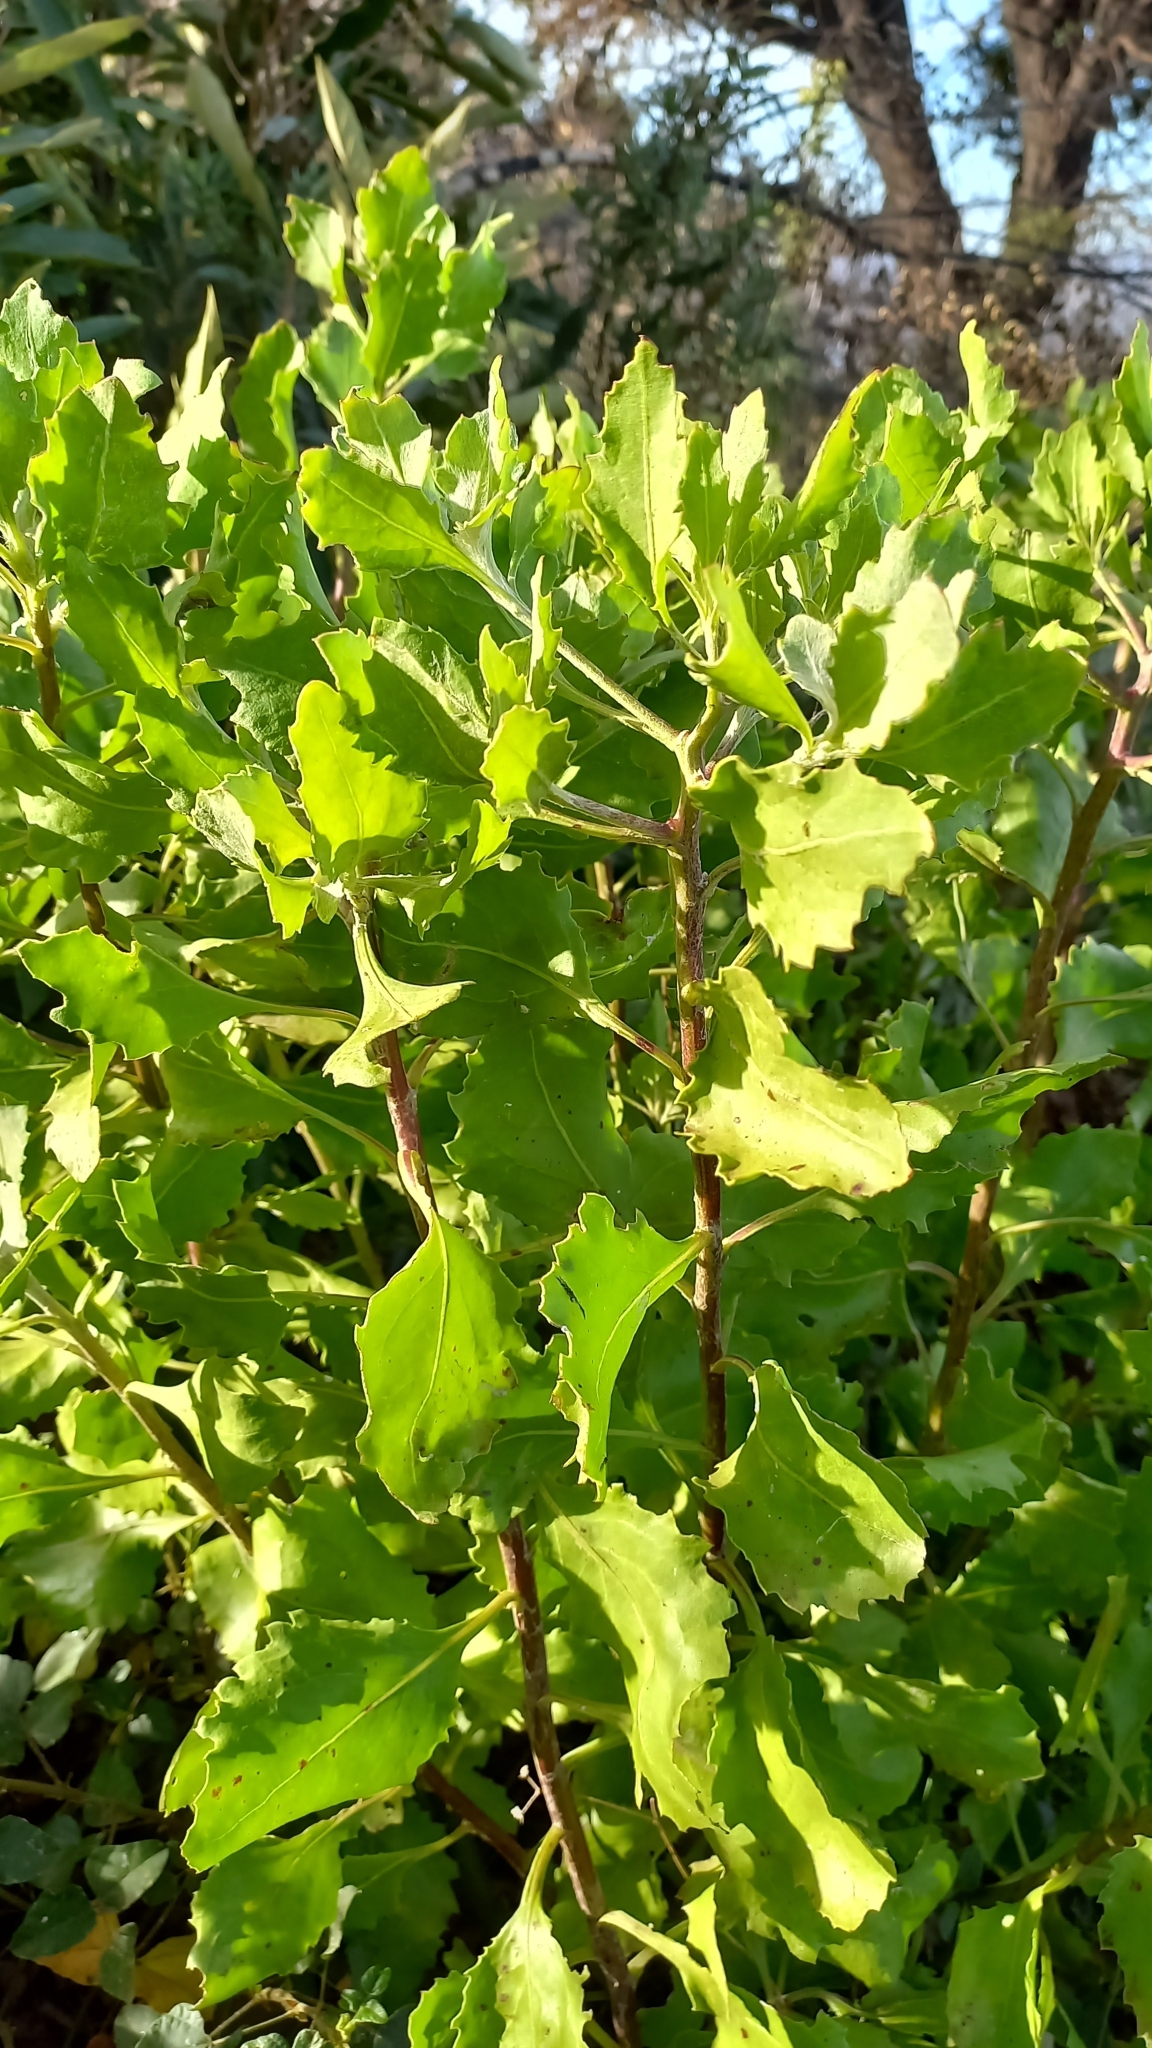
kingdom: Plantae
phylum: Tracheophyta
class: Magnoliopsida
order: Asterales
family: Asteraceae
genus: Osteospermum
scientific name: Osteospermum moniliferum
